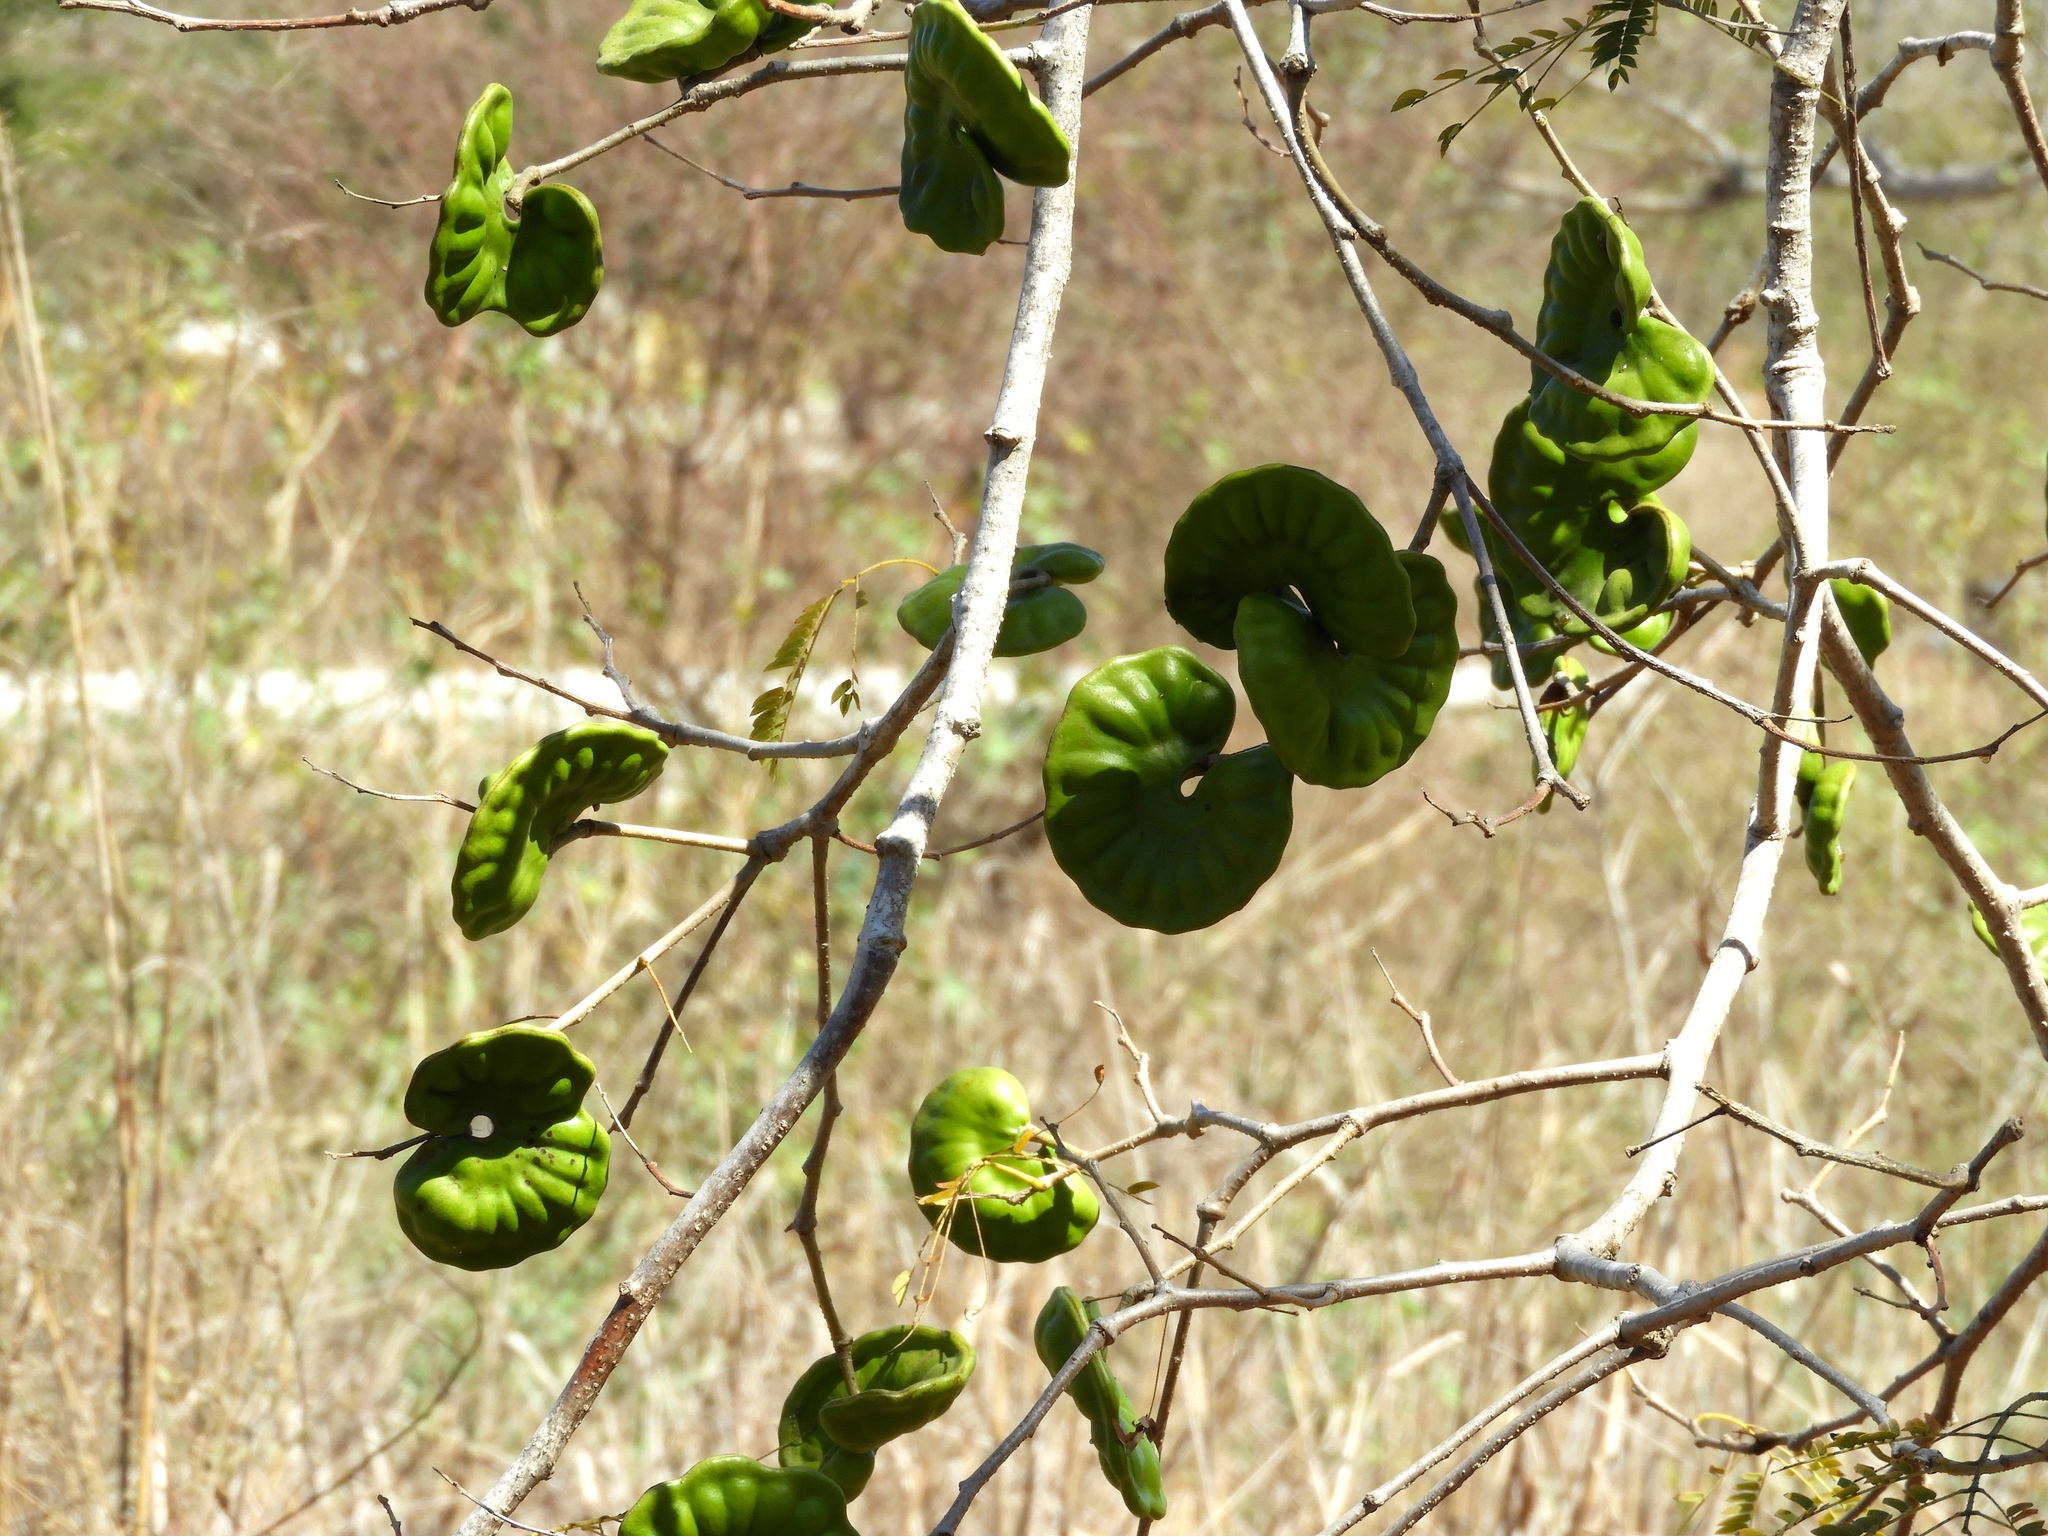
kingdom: Plantae
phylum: Tracheophyta
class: Magnoliopsida
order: Fabales
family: Fabaceae
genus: Enterolobium
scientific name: Enterolobium cyclocarpum
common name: Ear tree
